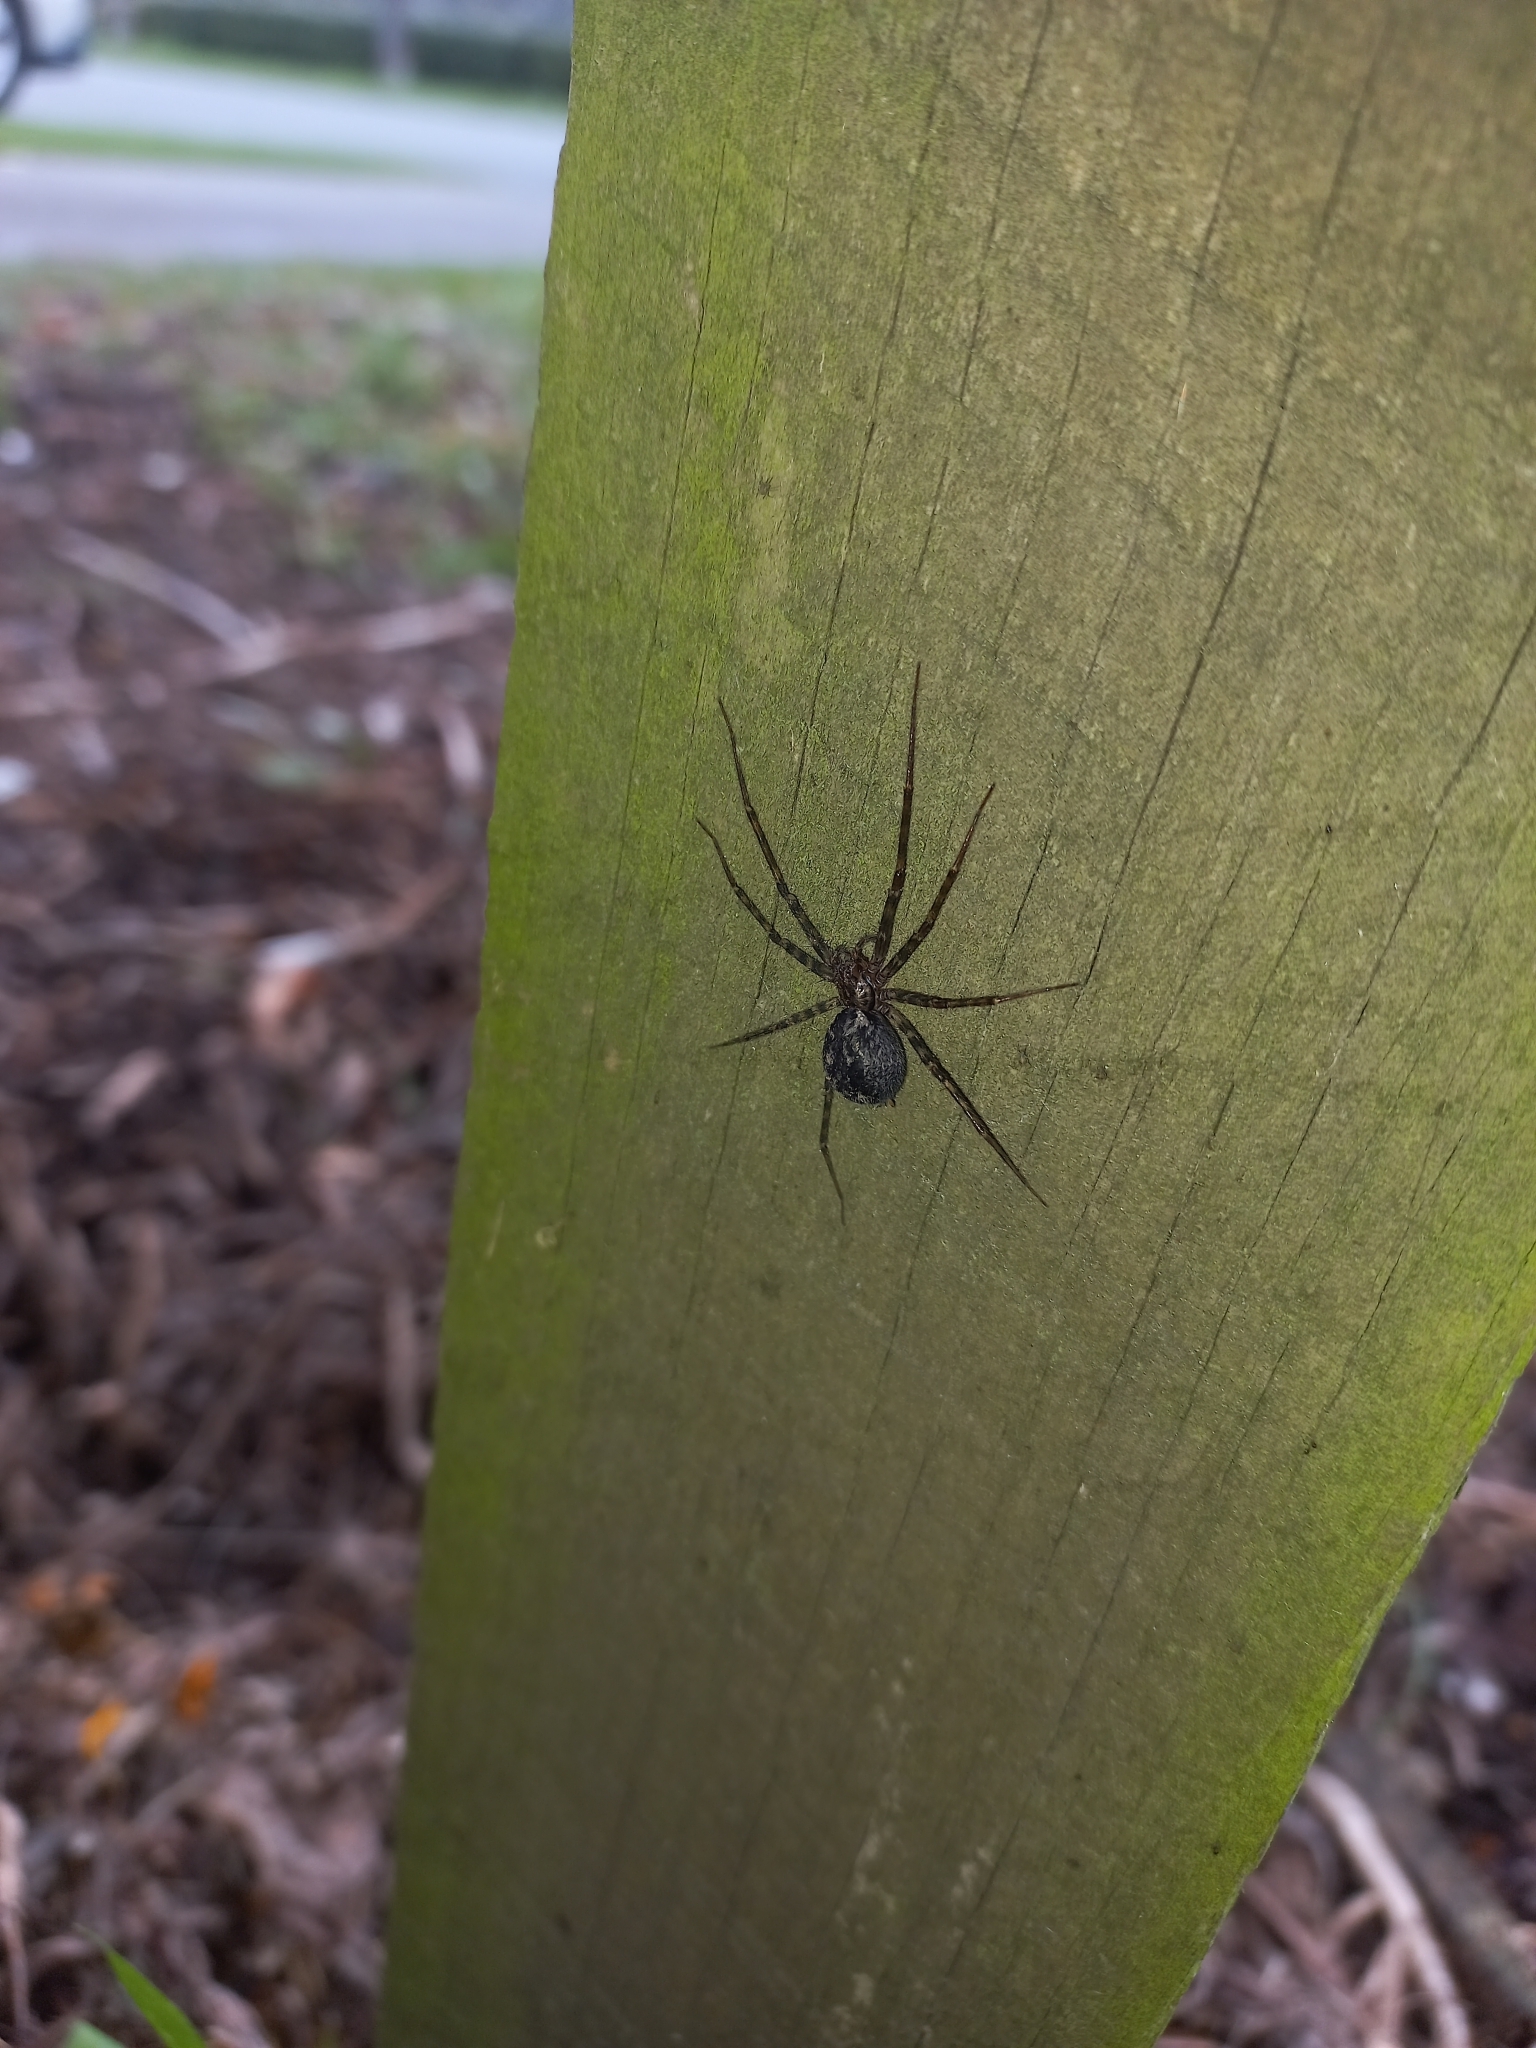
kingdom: Animalia
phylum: Arthropoda
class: Arachnida
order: Araneae
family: Stiphidiidae
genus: Stiphidion
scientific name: Stiphidion facetum
